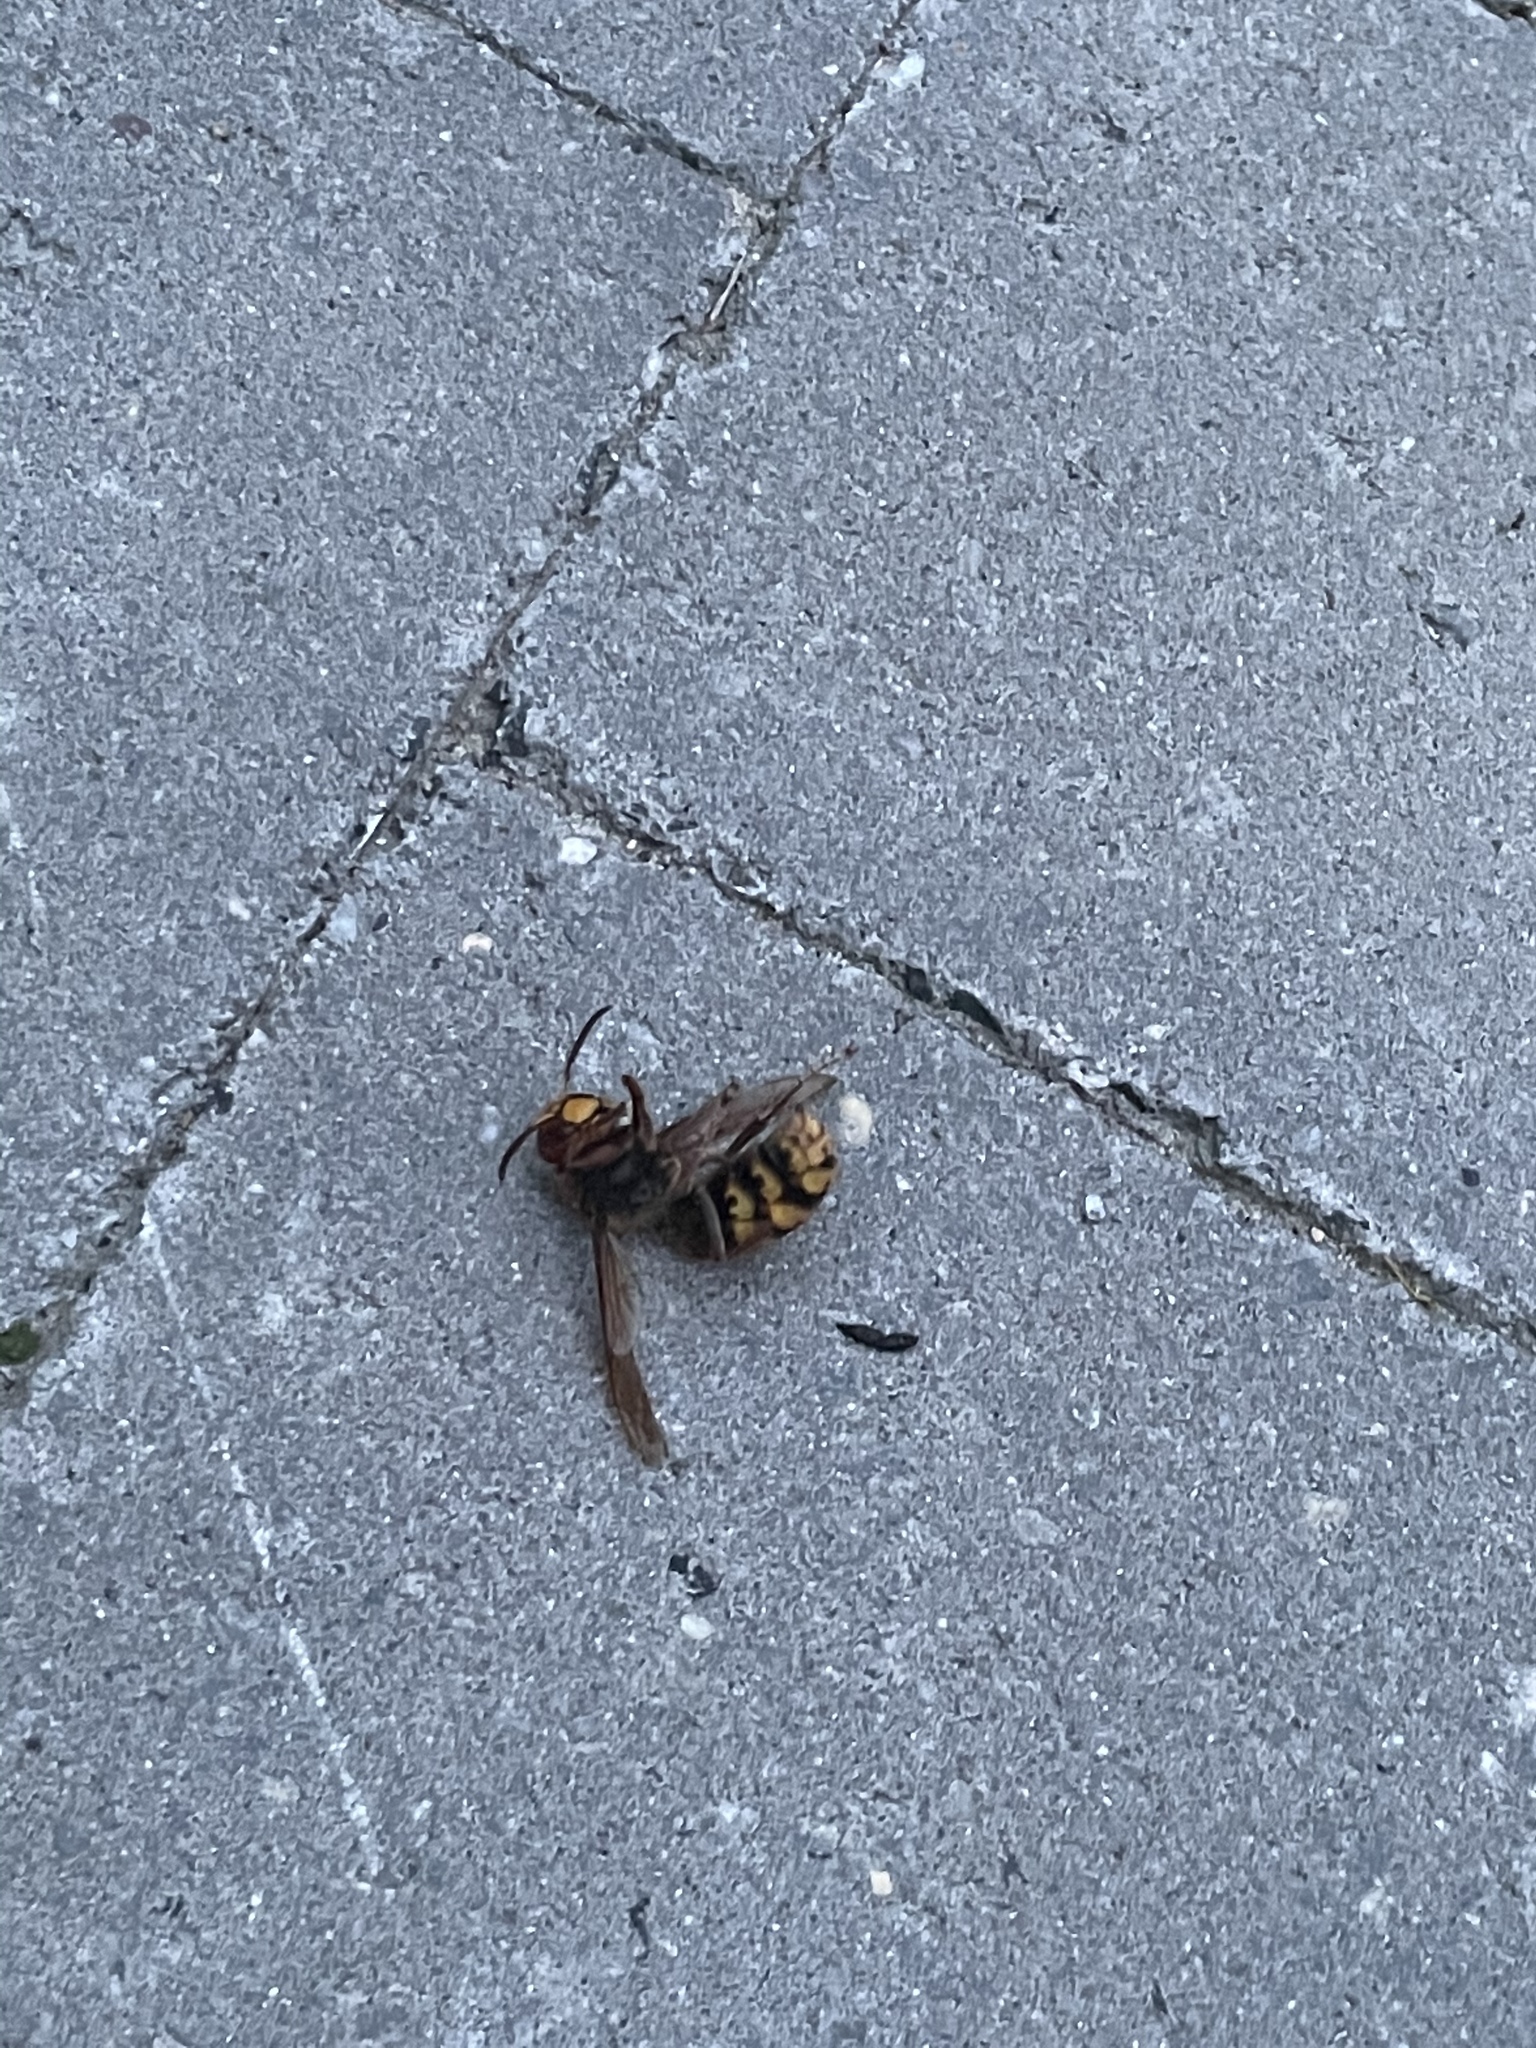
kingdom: Animalia
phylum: Arthropoda
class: Insecta
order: Hymenoptera
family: Vespidae
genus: Vespa
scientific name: Vespa crabro
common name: Hornet
